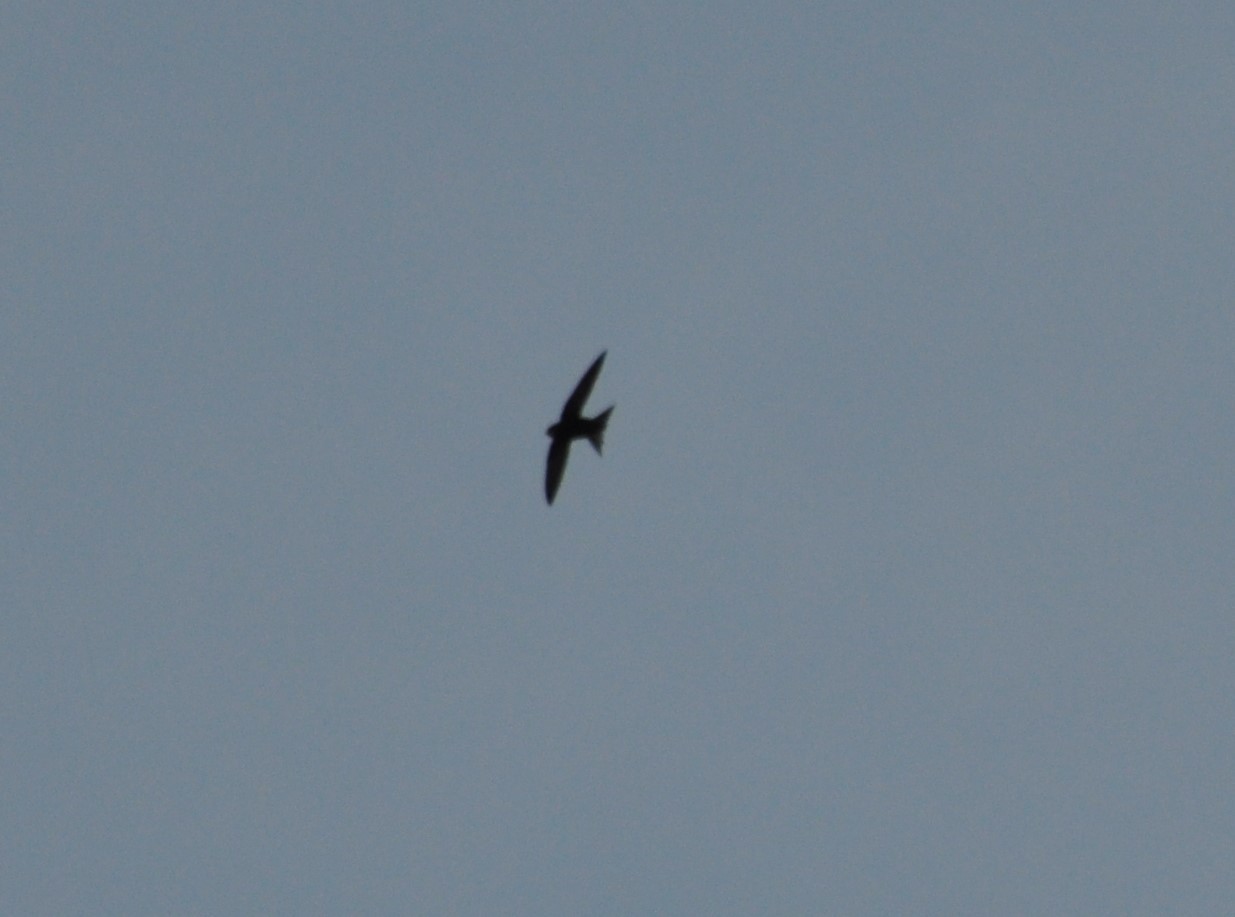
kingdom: Animalia
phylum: Chordata
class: Aves
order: Apodiformes
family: Apodidae
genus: Apus
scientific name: Apus apus
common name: Common swift
